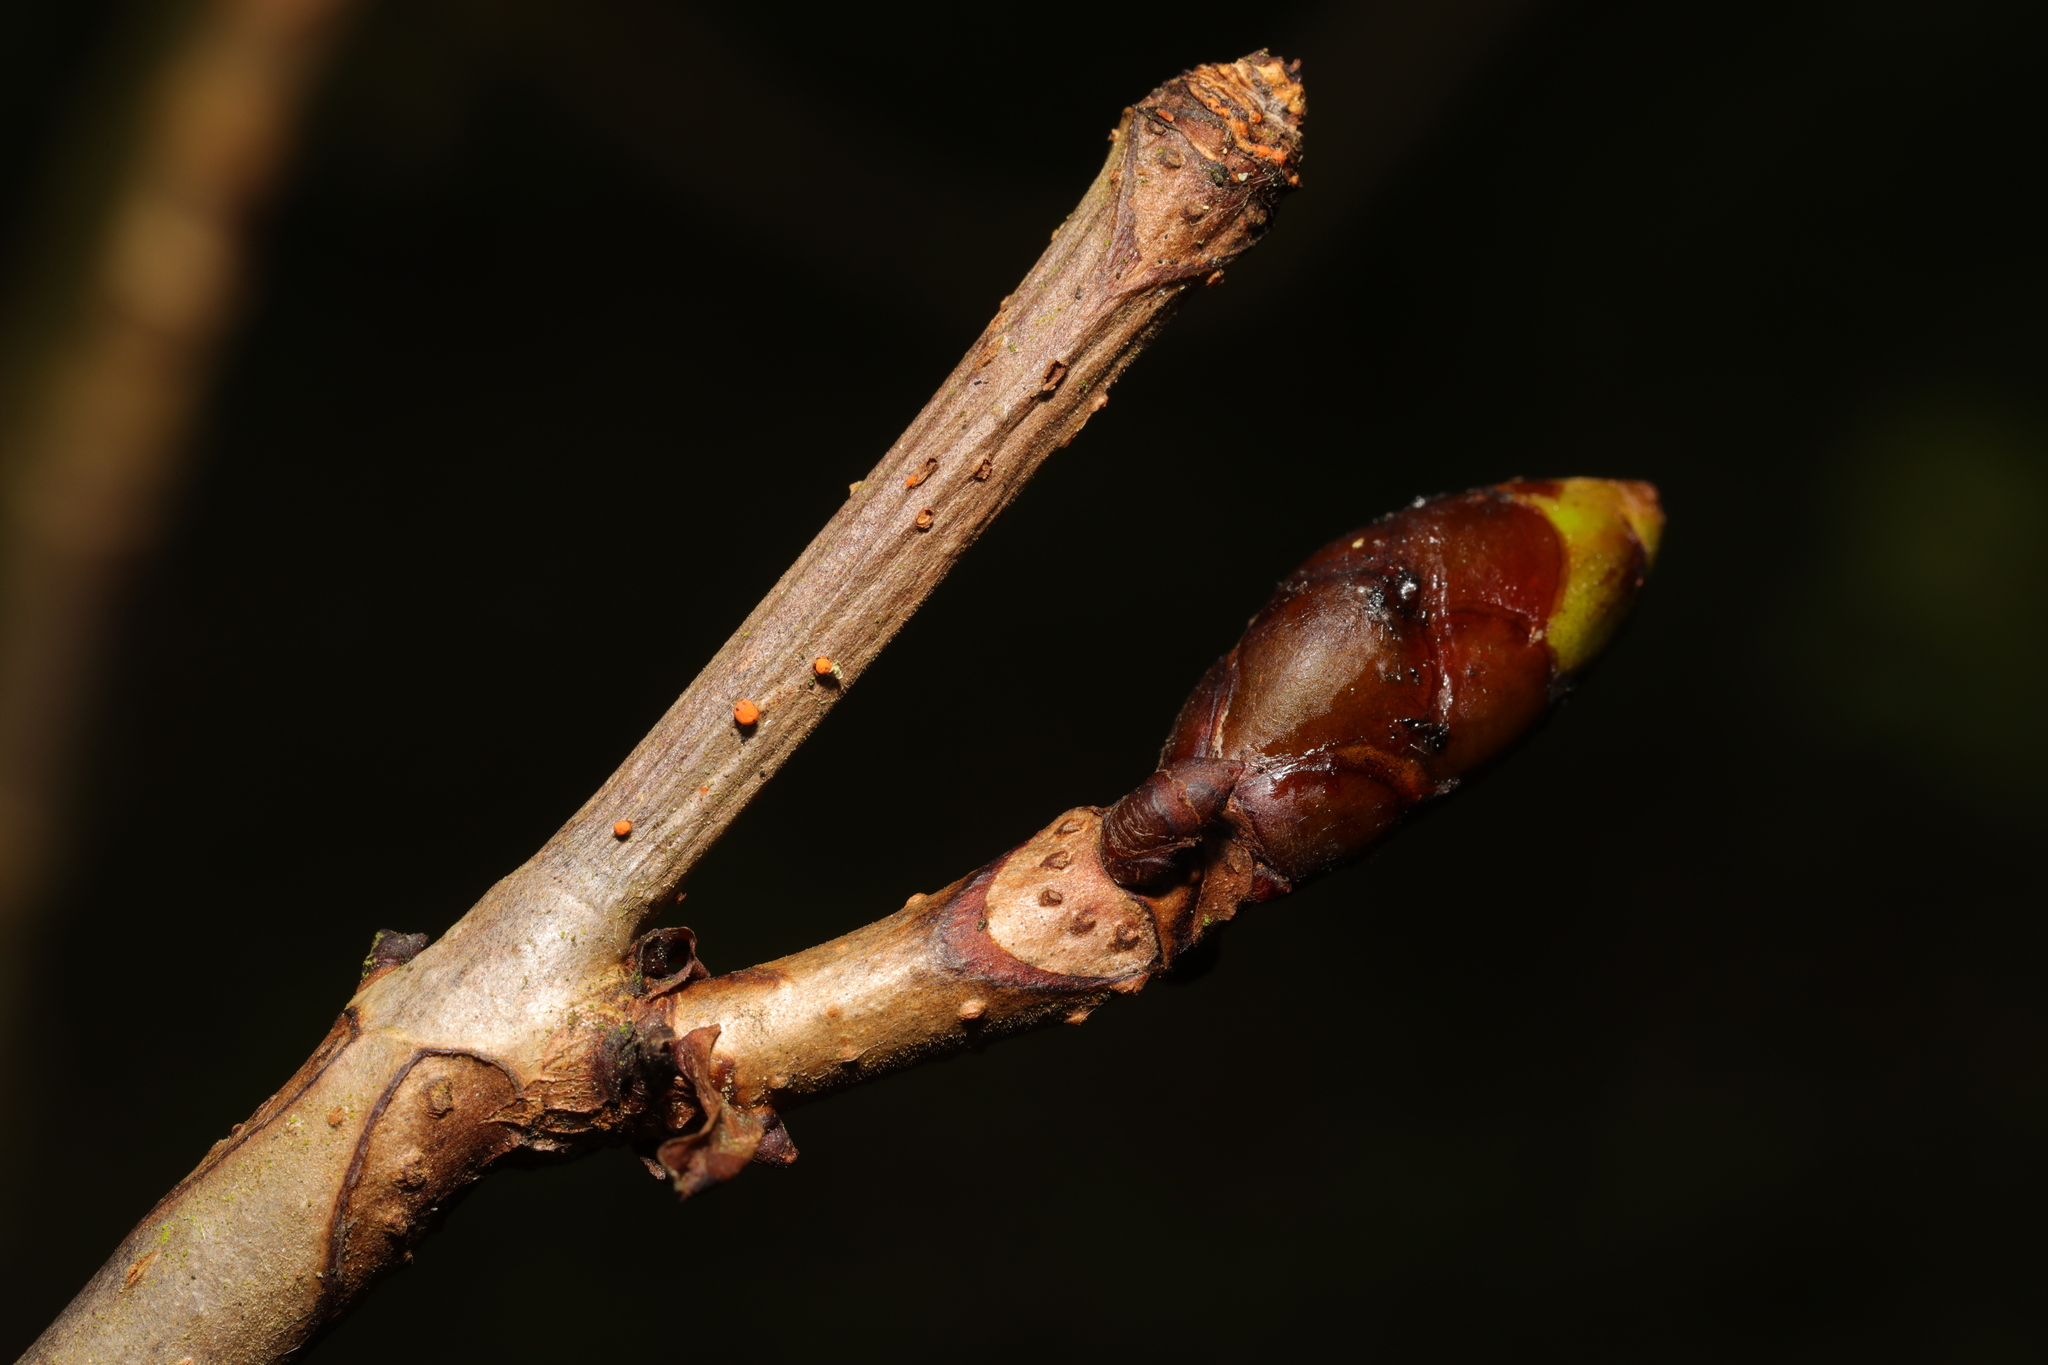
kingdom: Plantae
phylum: Tracheophyta
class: Magnoliopsida
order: Sapindales
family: Sapindaceae
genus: Aesculus
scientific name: Aesculus hippocastanum
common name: Horse-chestnut
